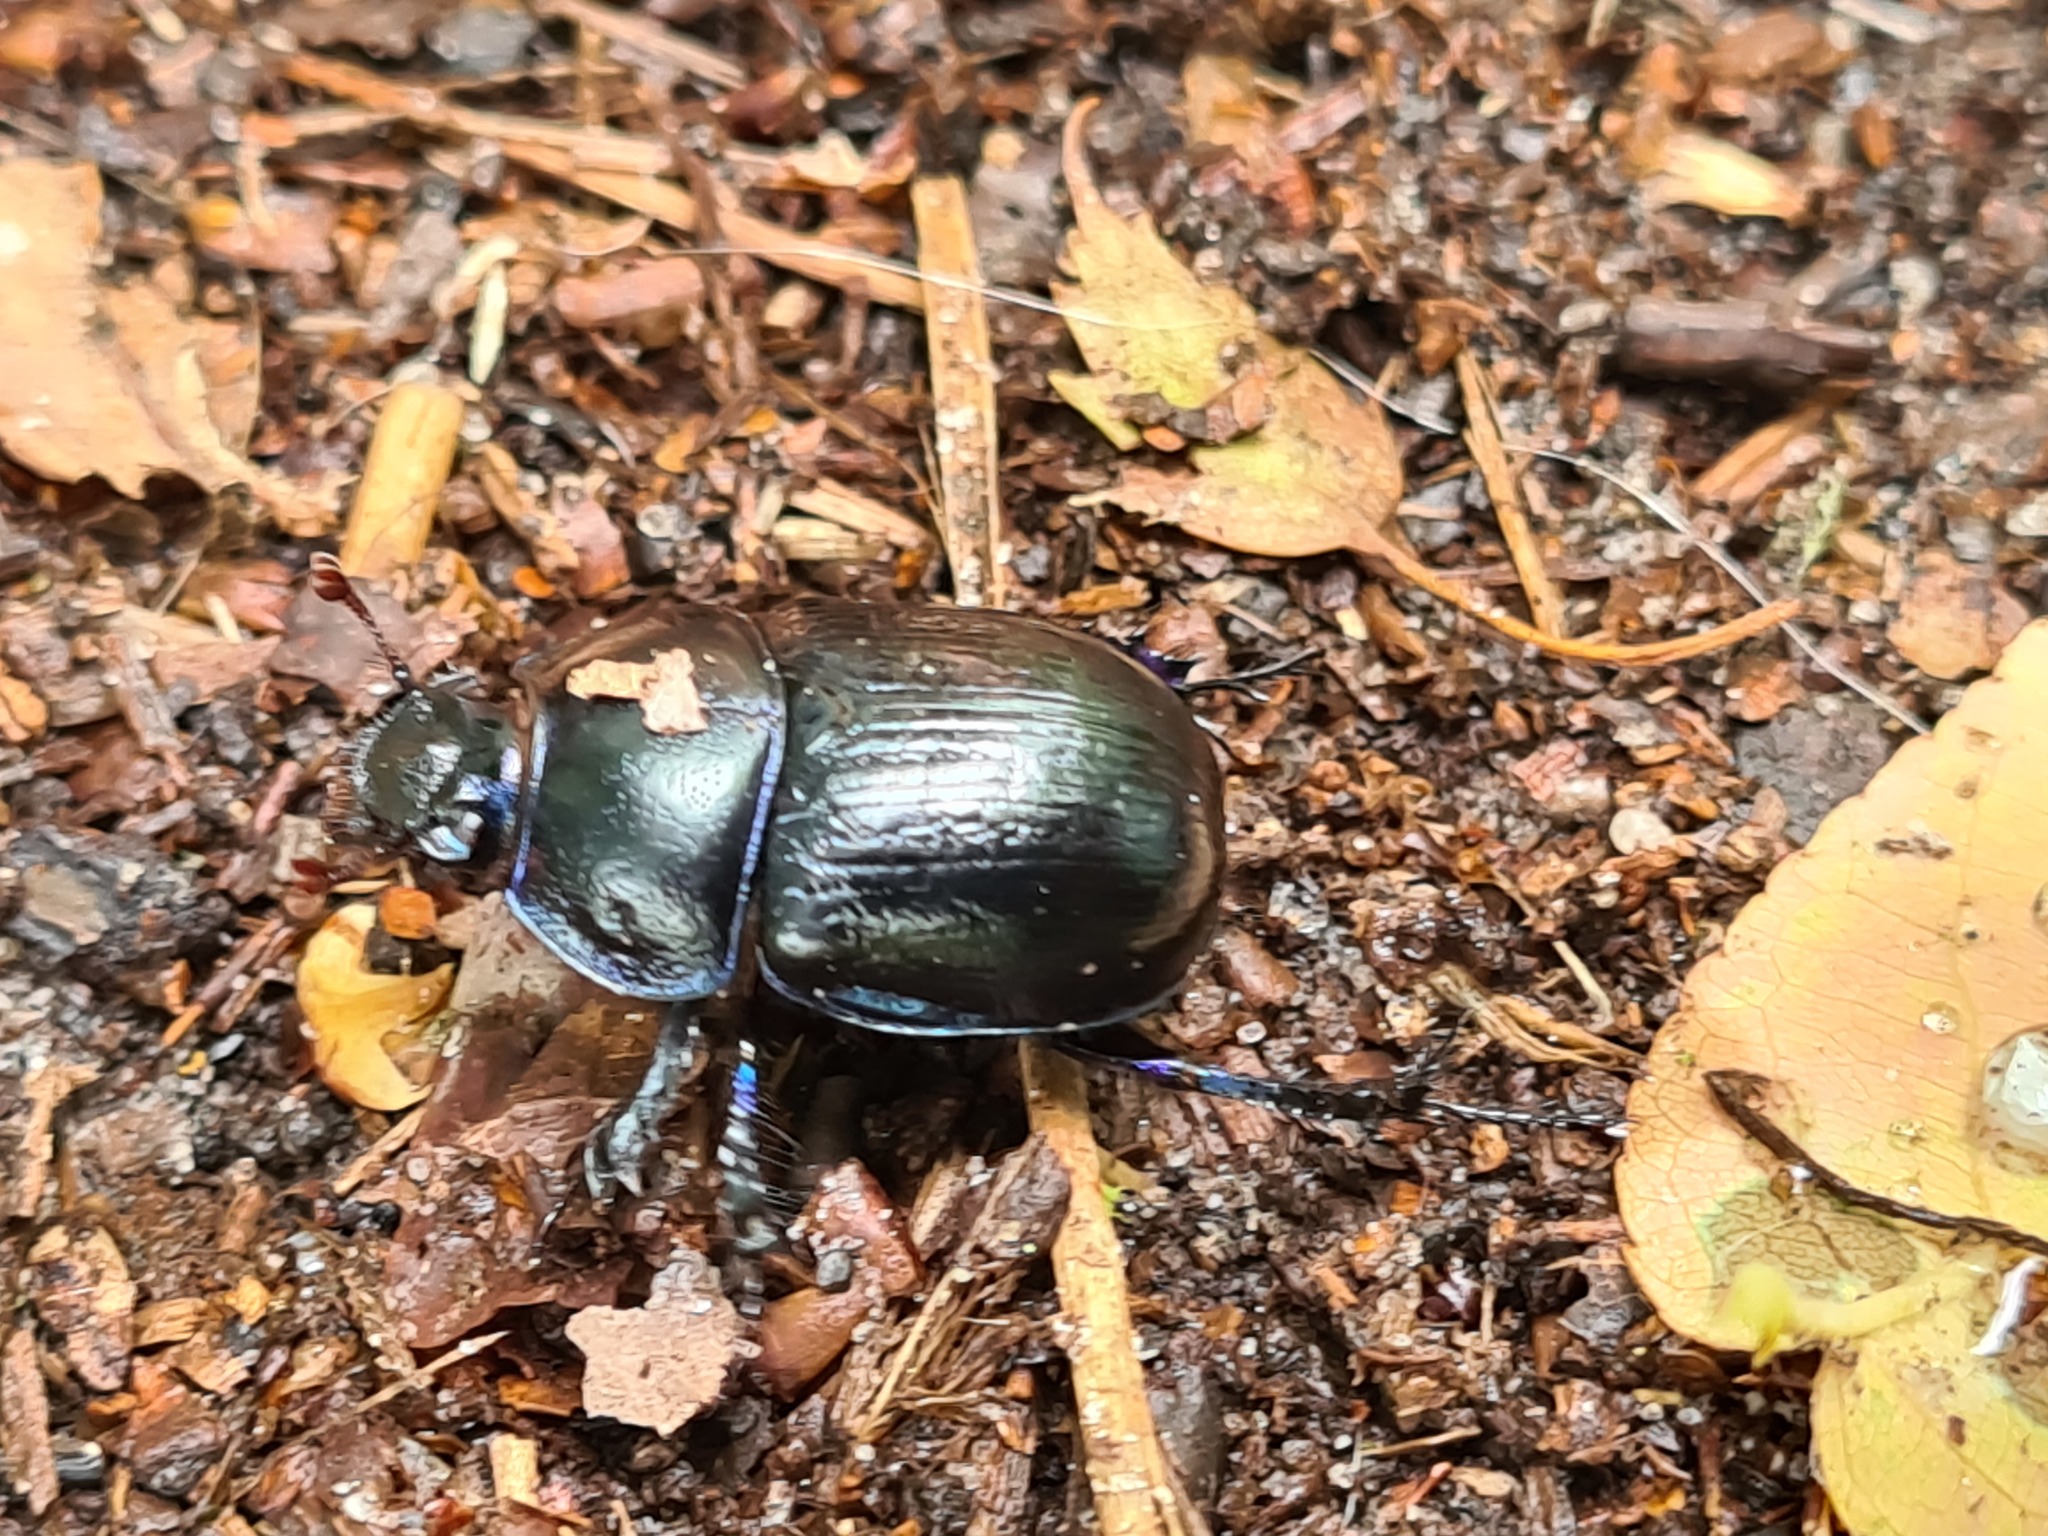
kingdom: Animalia
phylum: Arthropoda
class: Insecta
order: Coleoptera
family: Geotrupidae
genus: Anoplotrupes
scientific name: Anoplotrupes stercorosus
